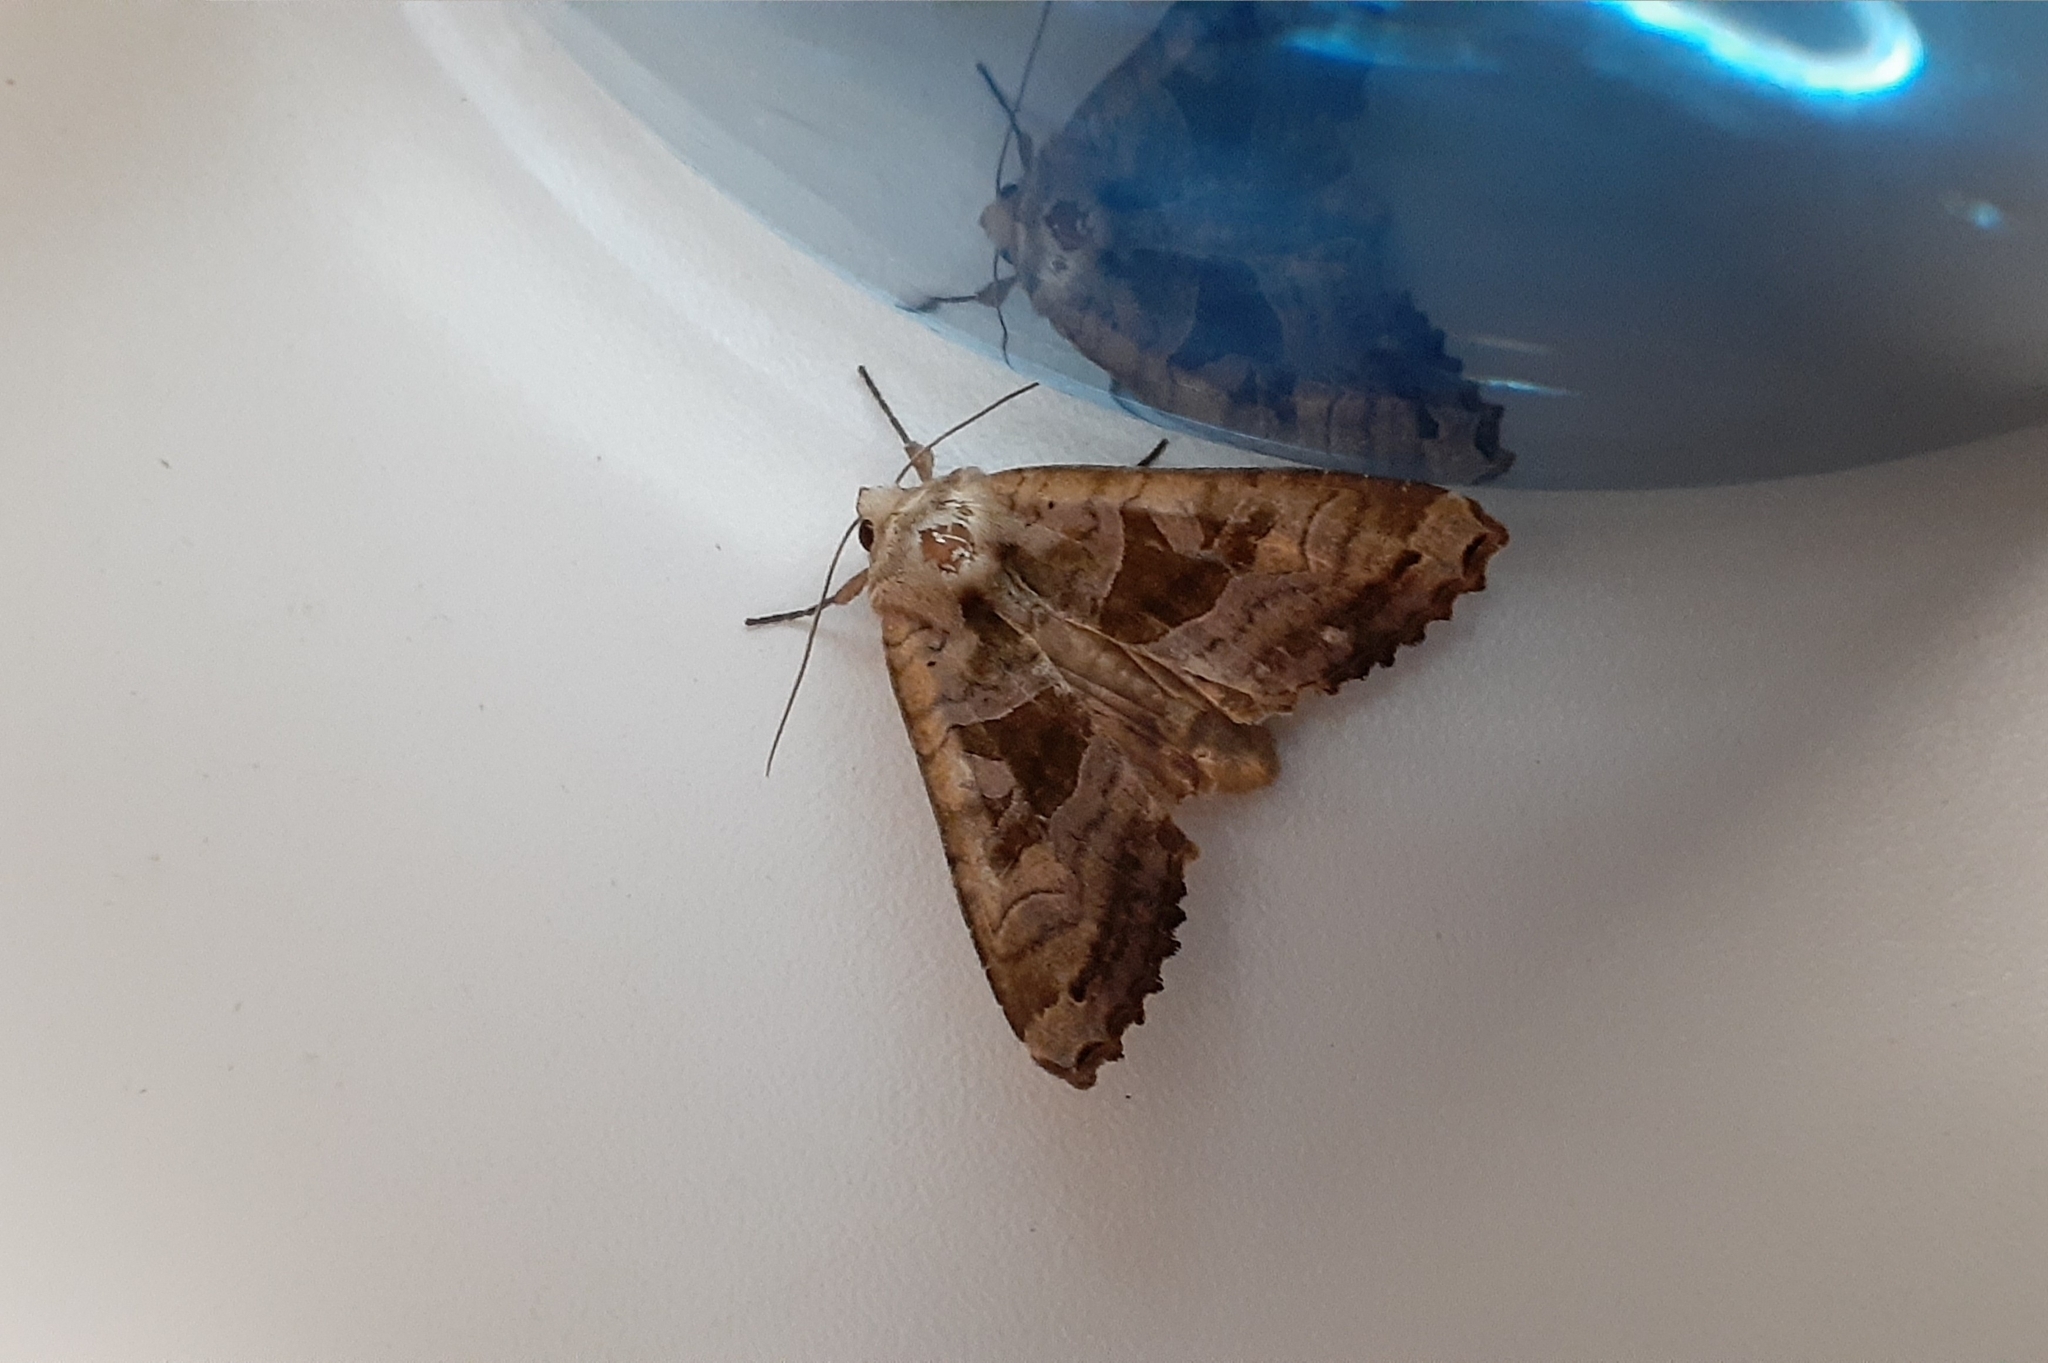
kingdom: Animalia
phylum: Arthropoda
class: Insecta
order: Lepidoptera
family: Noctuidae
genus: Phlogophora
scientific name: Phlogophora periculosa
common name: Brown angle shades
